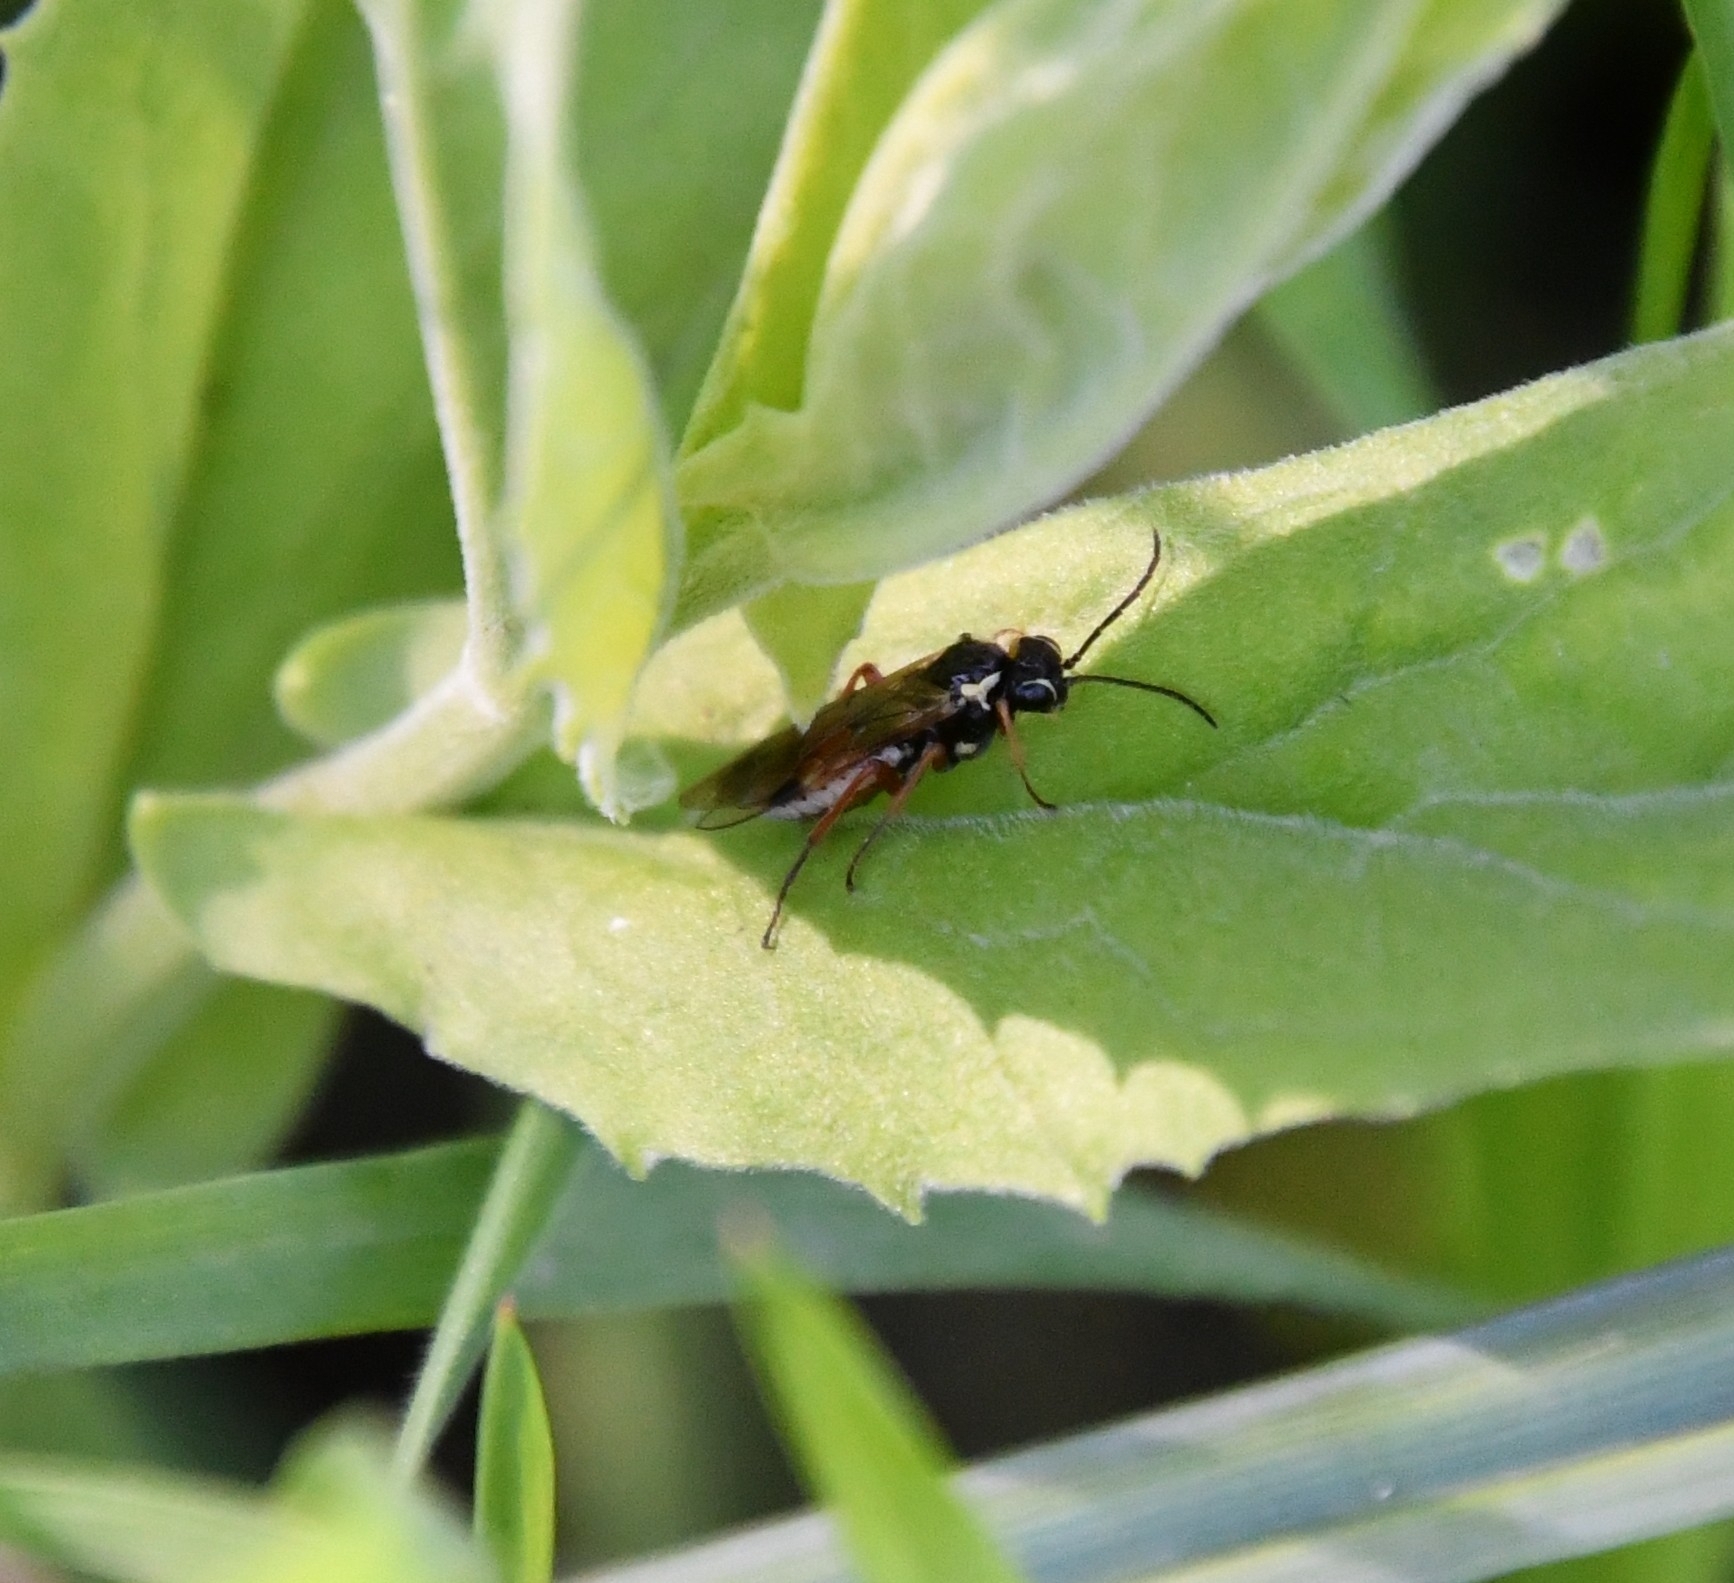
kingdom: Animalia
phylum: Arthropoda
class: Insecta
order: Hymenoptera
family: Tenthredinidae
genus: Aglaostigma
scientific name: Aglaostigma fulvipes
